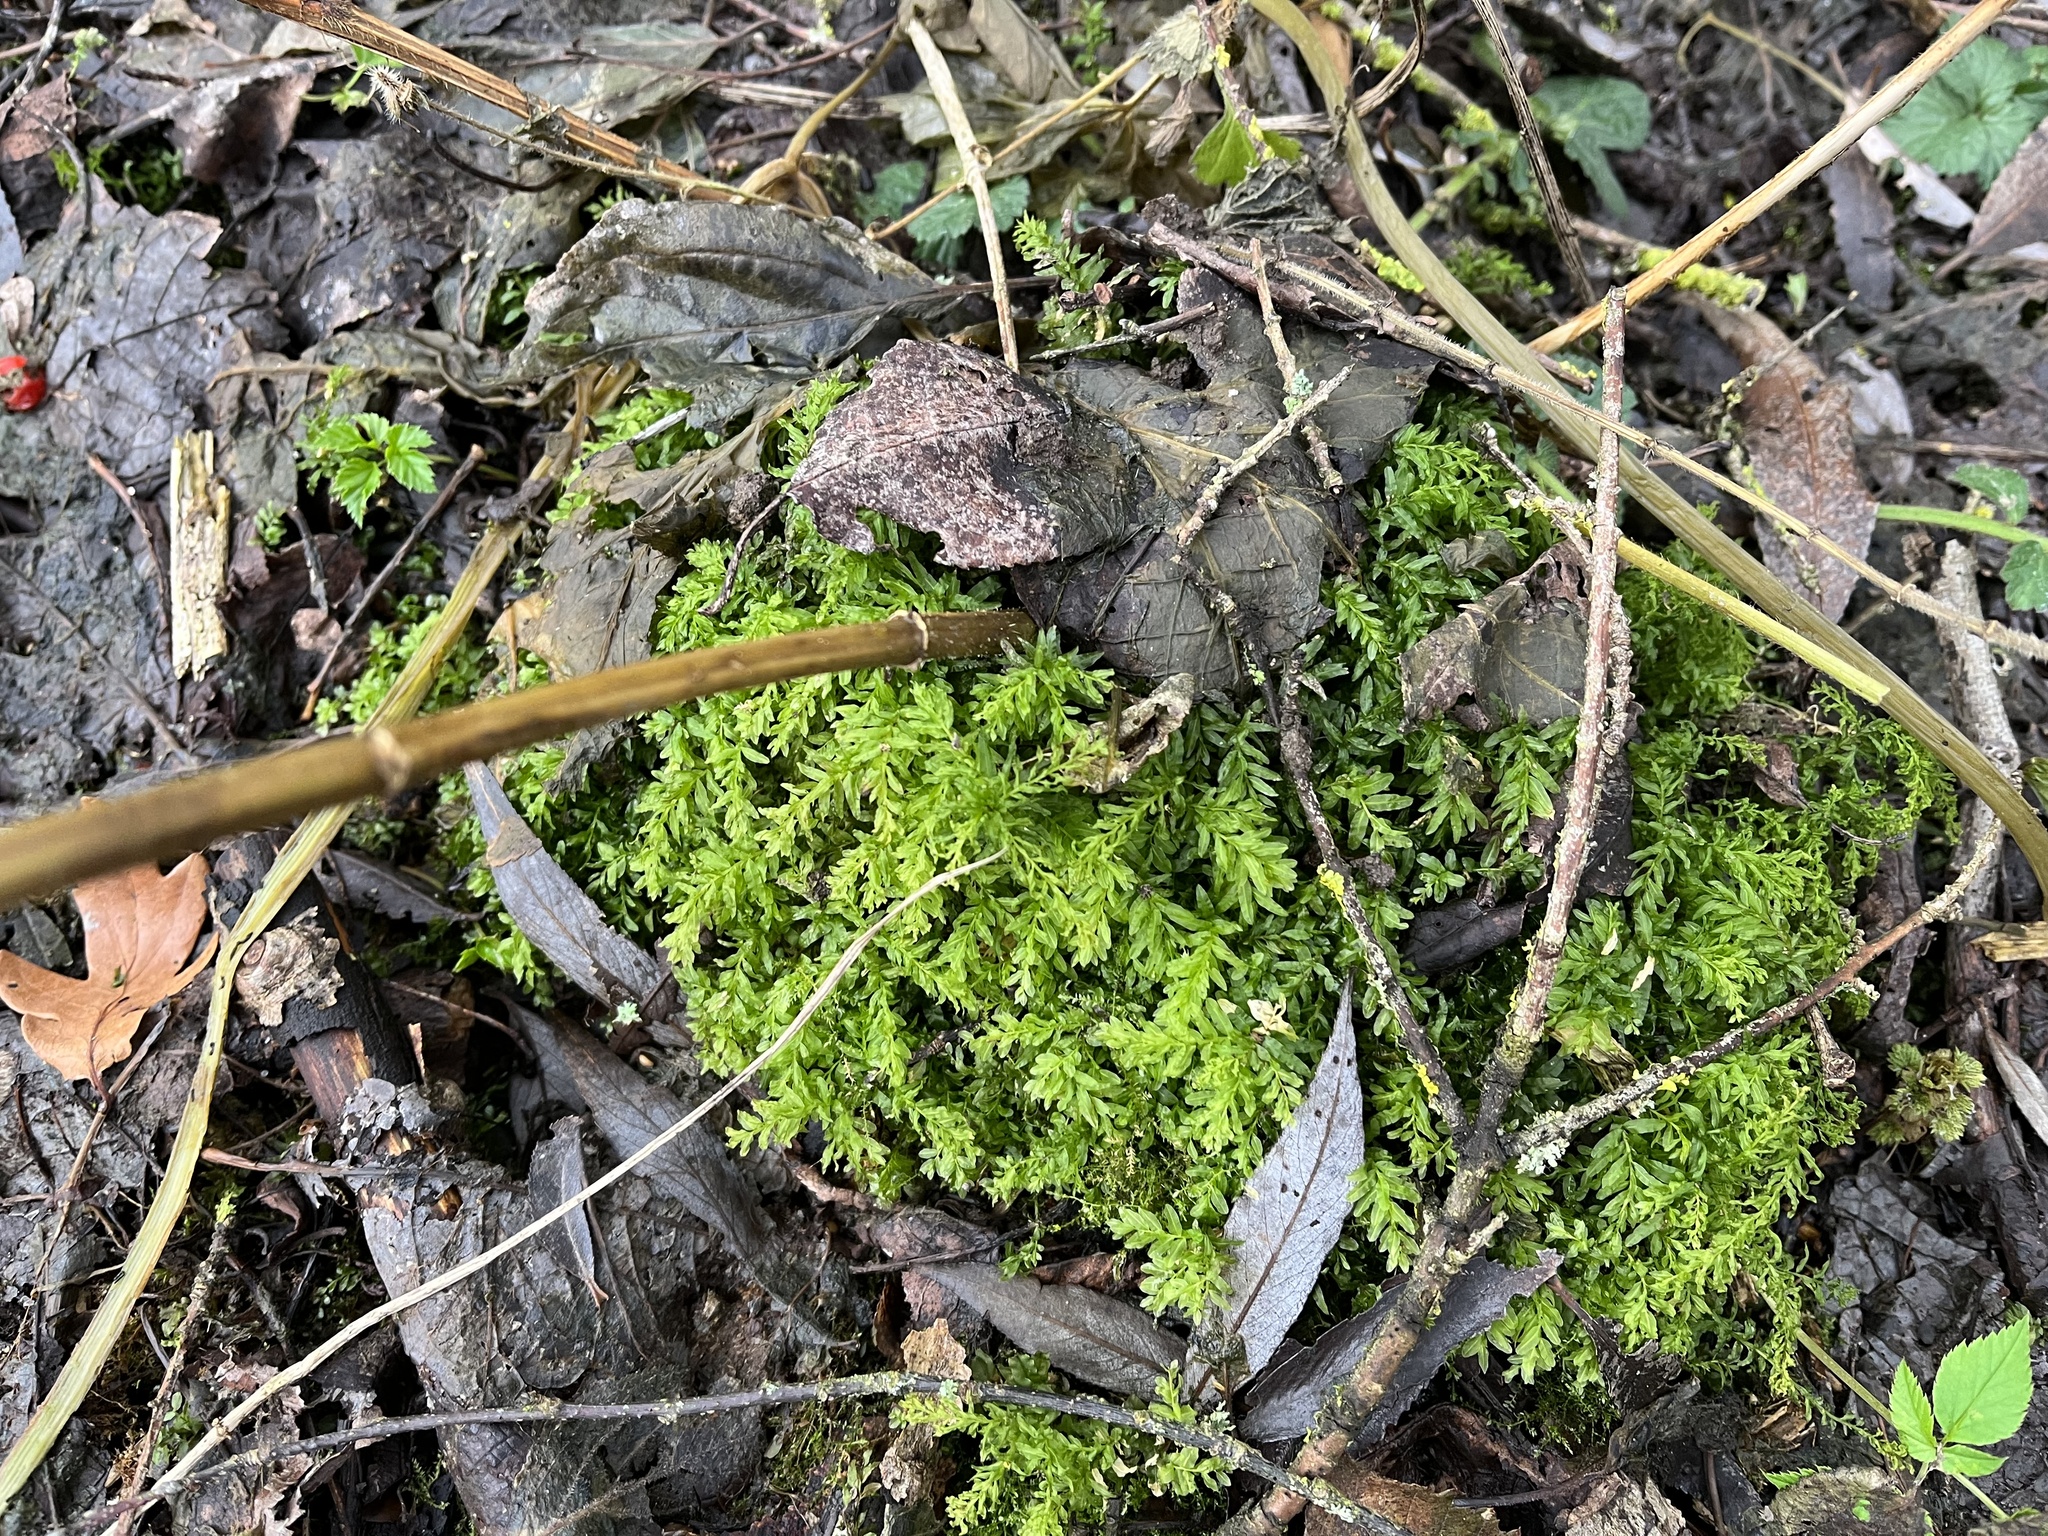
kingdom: Plantae
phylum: Bryophyta
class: Bryopsida
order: Bryales
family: Mniaceae
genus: Plagiomnium
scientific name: Plagiomnium undulatum
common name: Hart's-tongue thyme-moss
